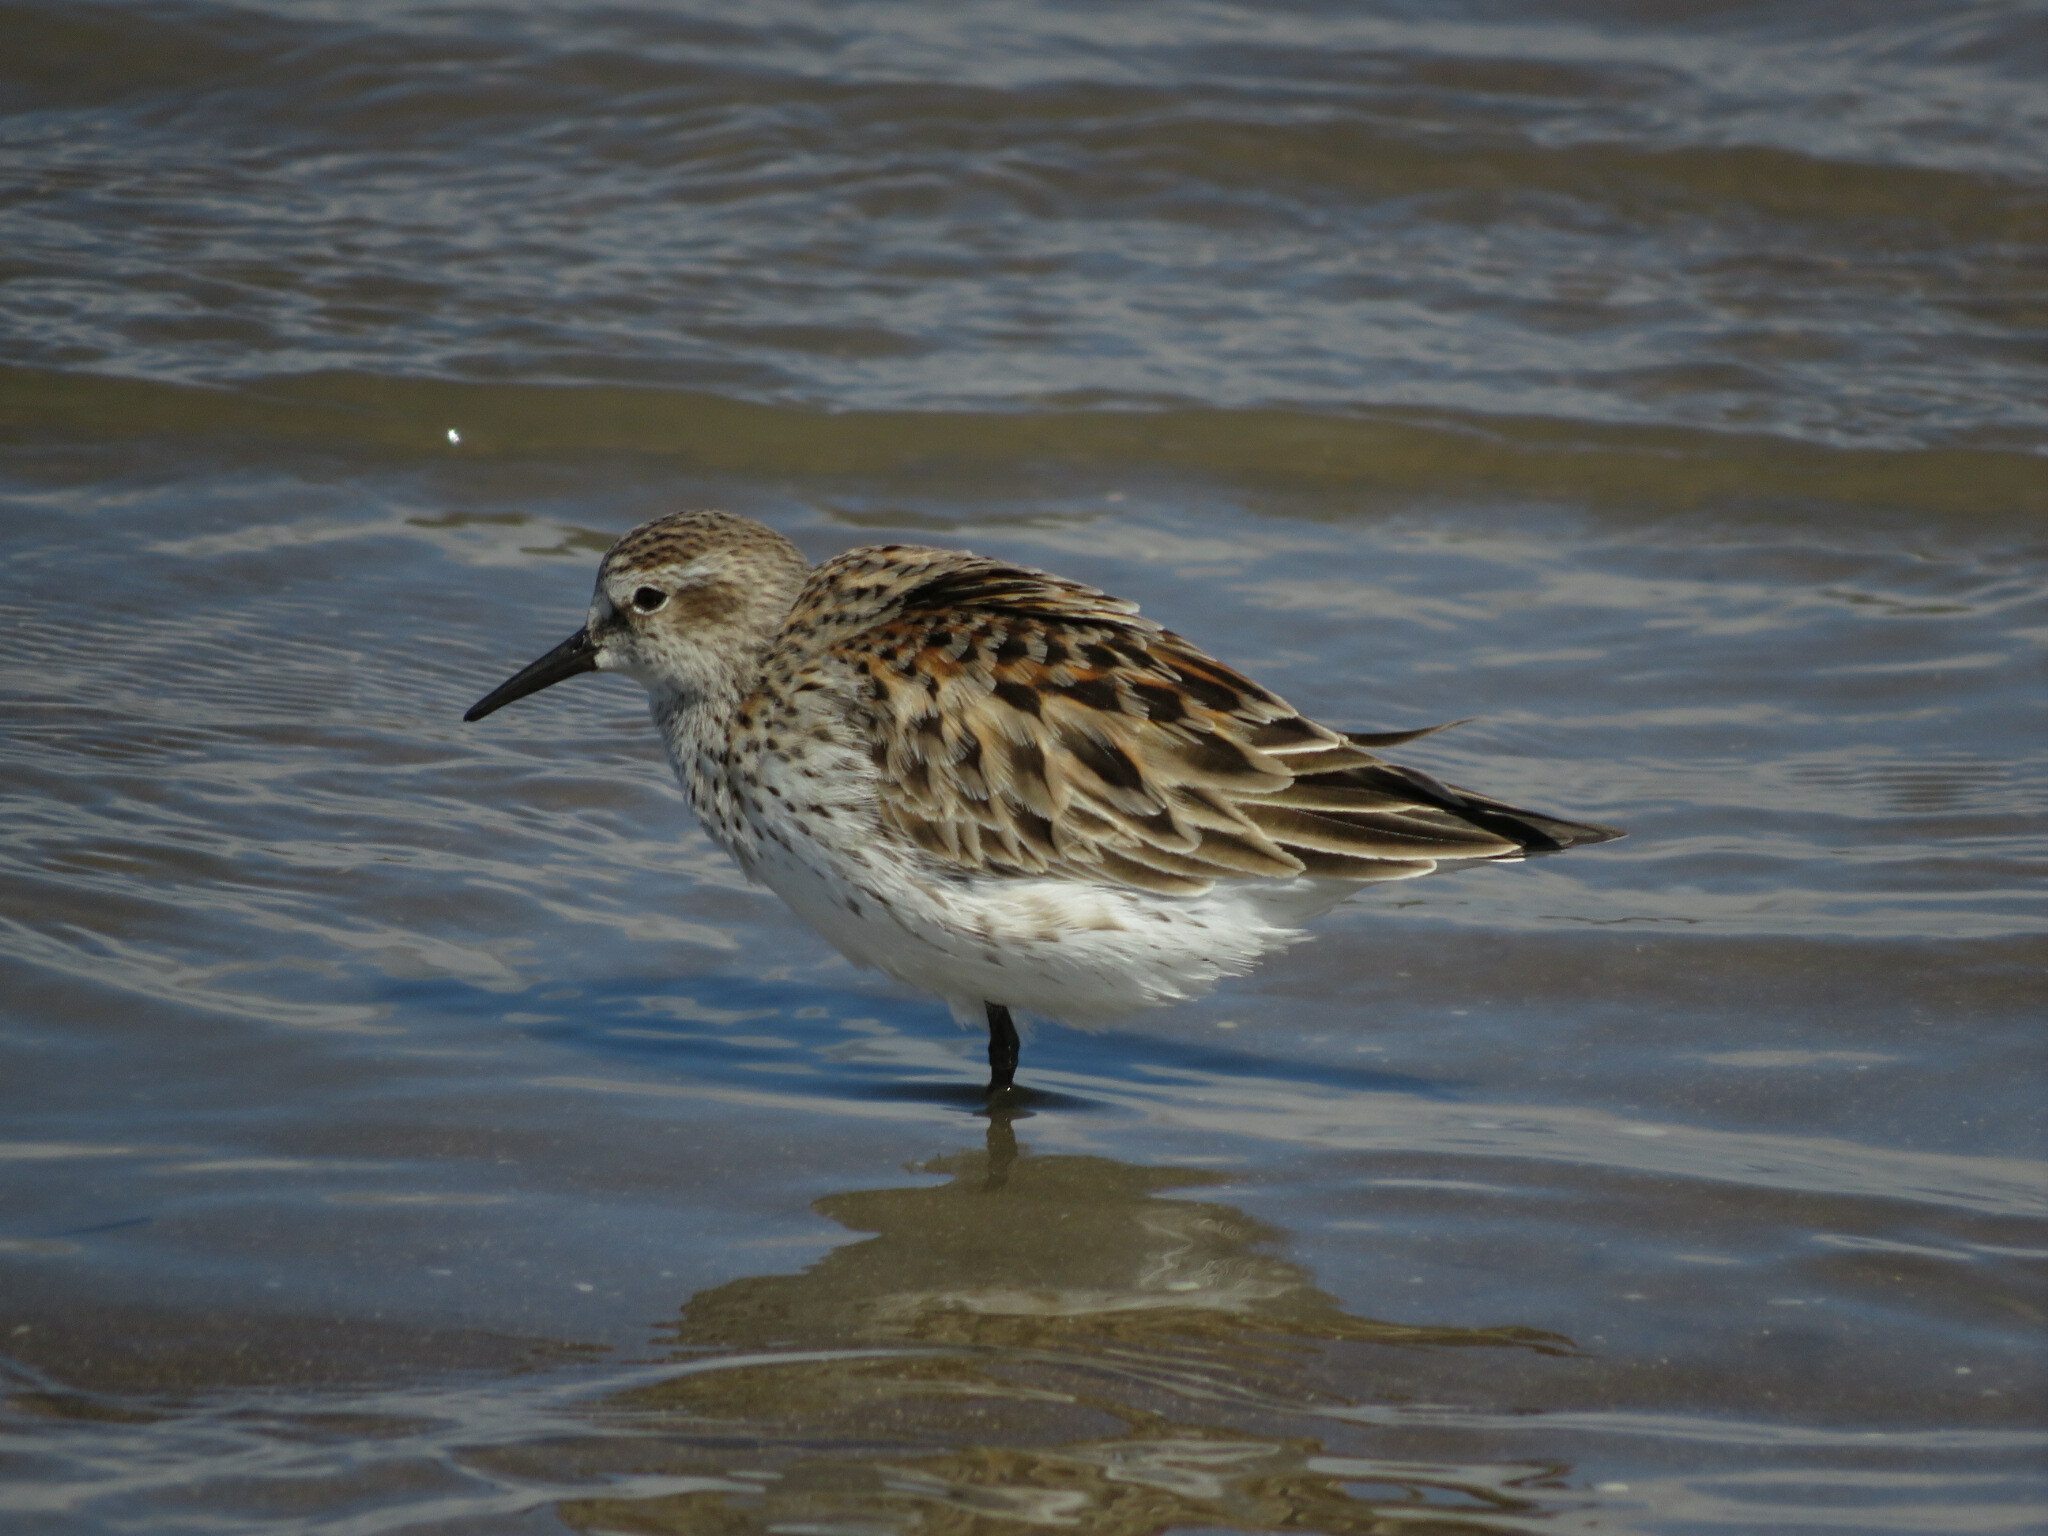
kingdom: Animalia
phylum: Chordata
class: Aves
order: Charadriiformes
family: Scolopacidae
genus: Calidris
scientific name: Calidris fuscicollis
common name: White-rumped sandpiper
